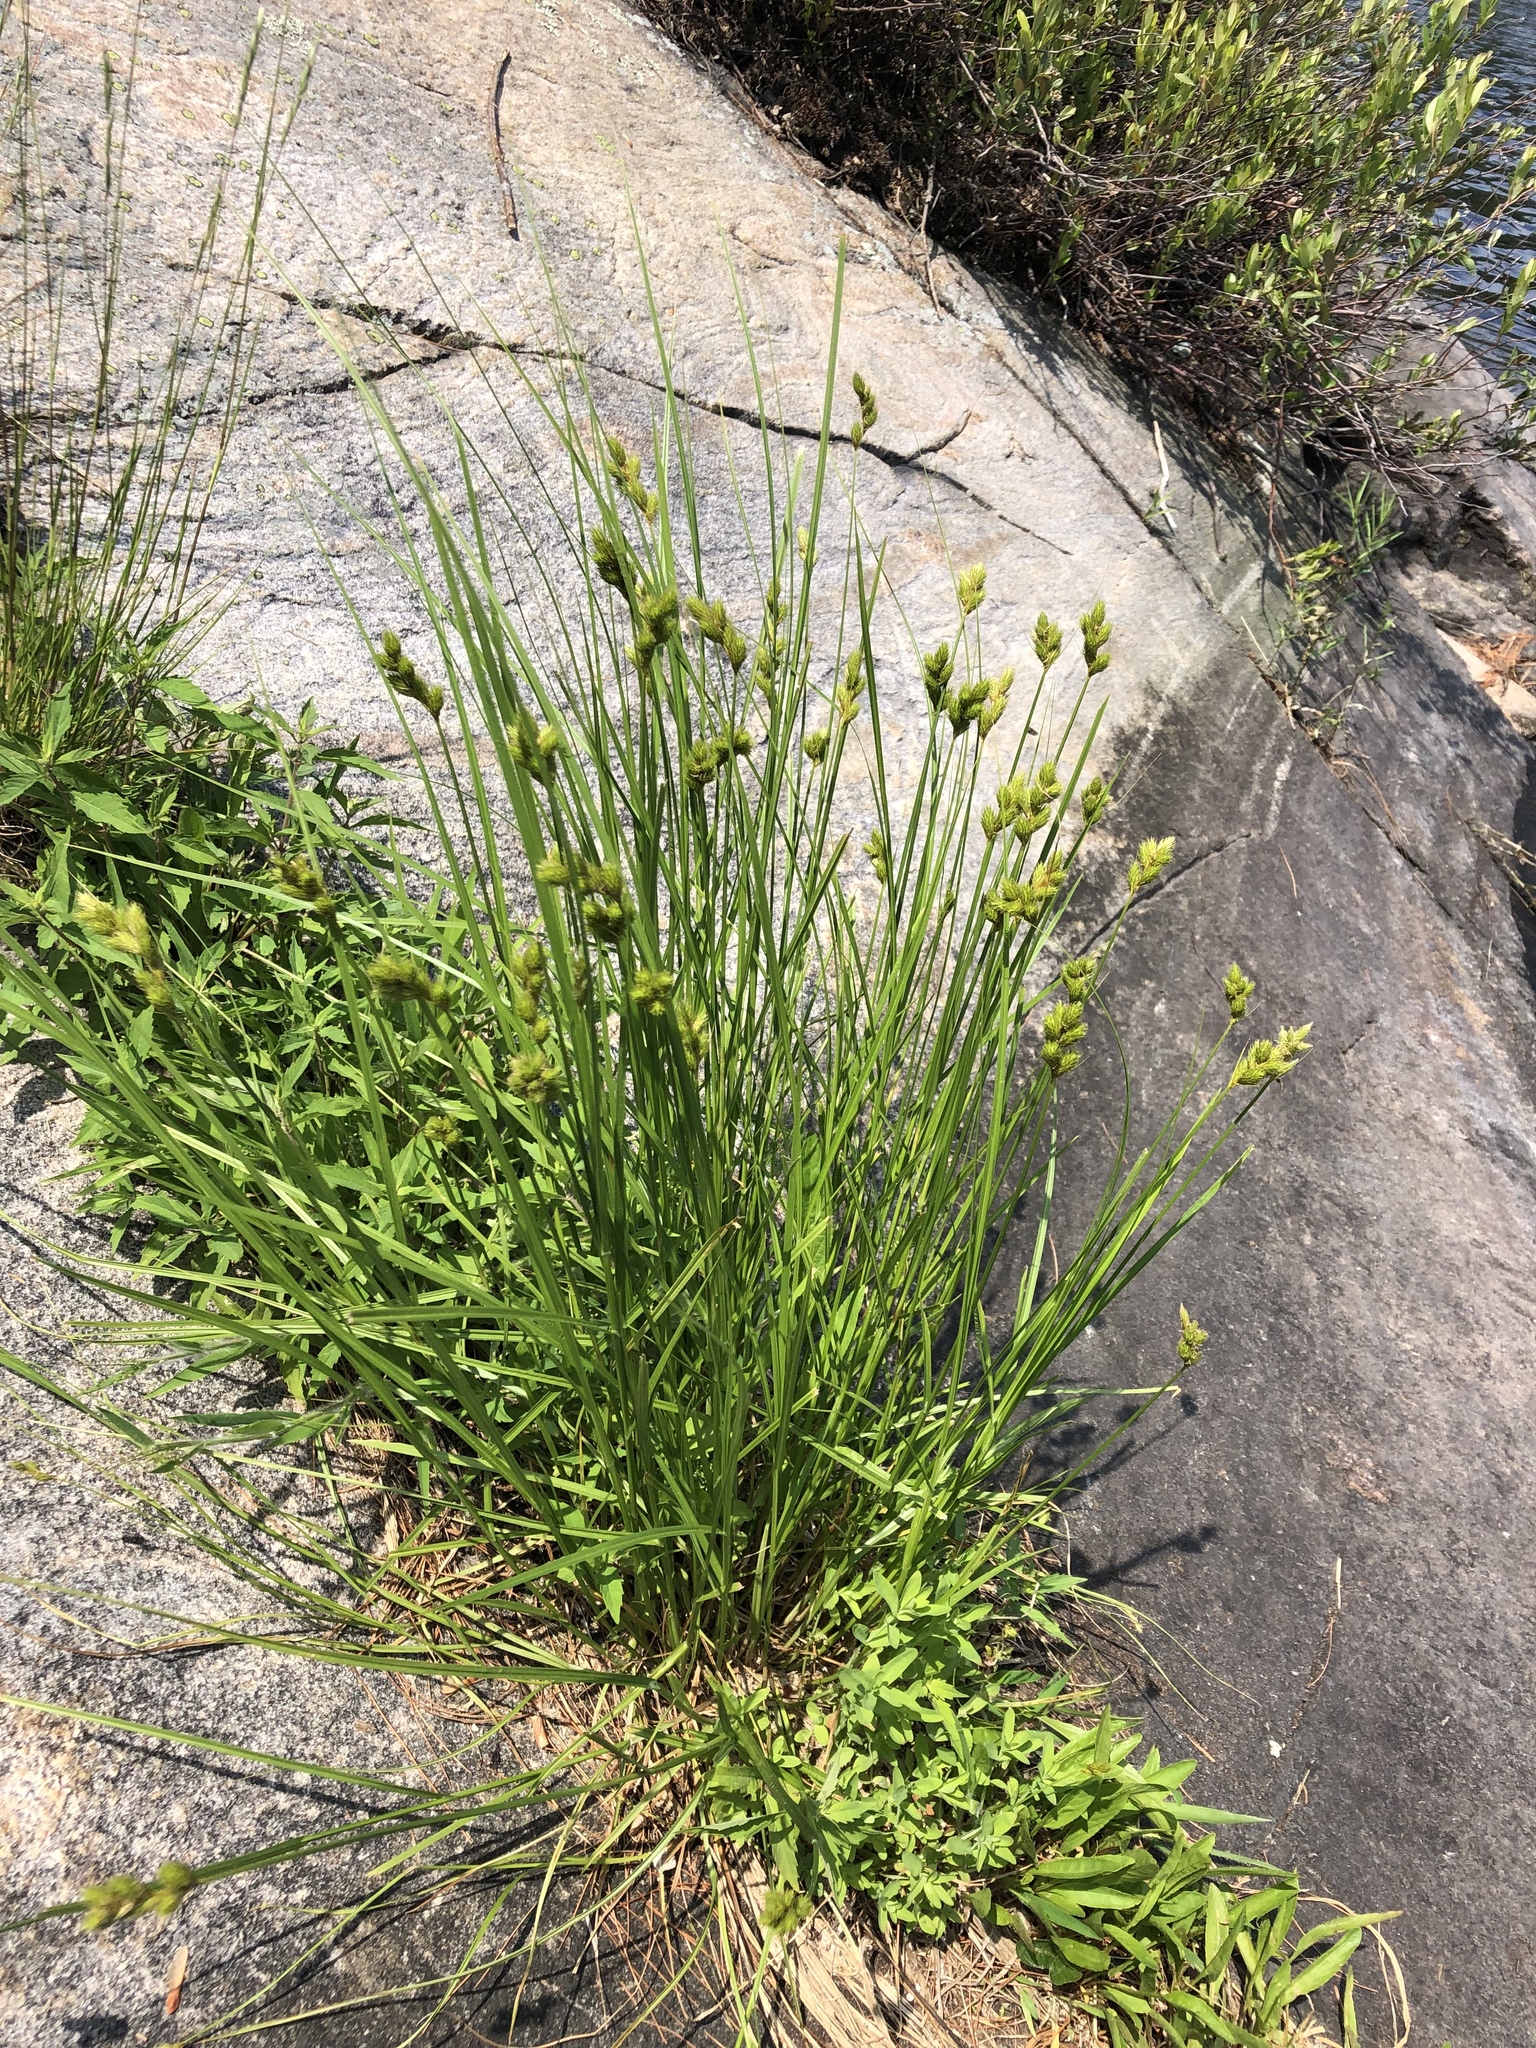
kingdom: Plantae
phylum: Tracheophyta
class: Liliopsida
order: Poales
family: Cyperaceae
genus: Carex
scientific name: Carex scoparia
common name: Broom sedge
